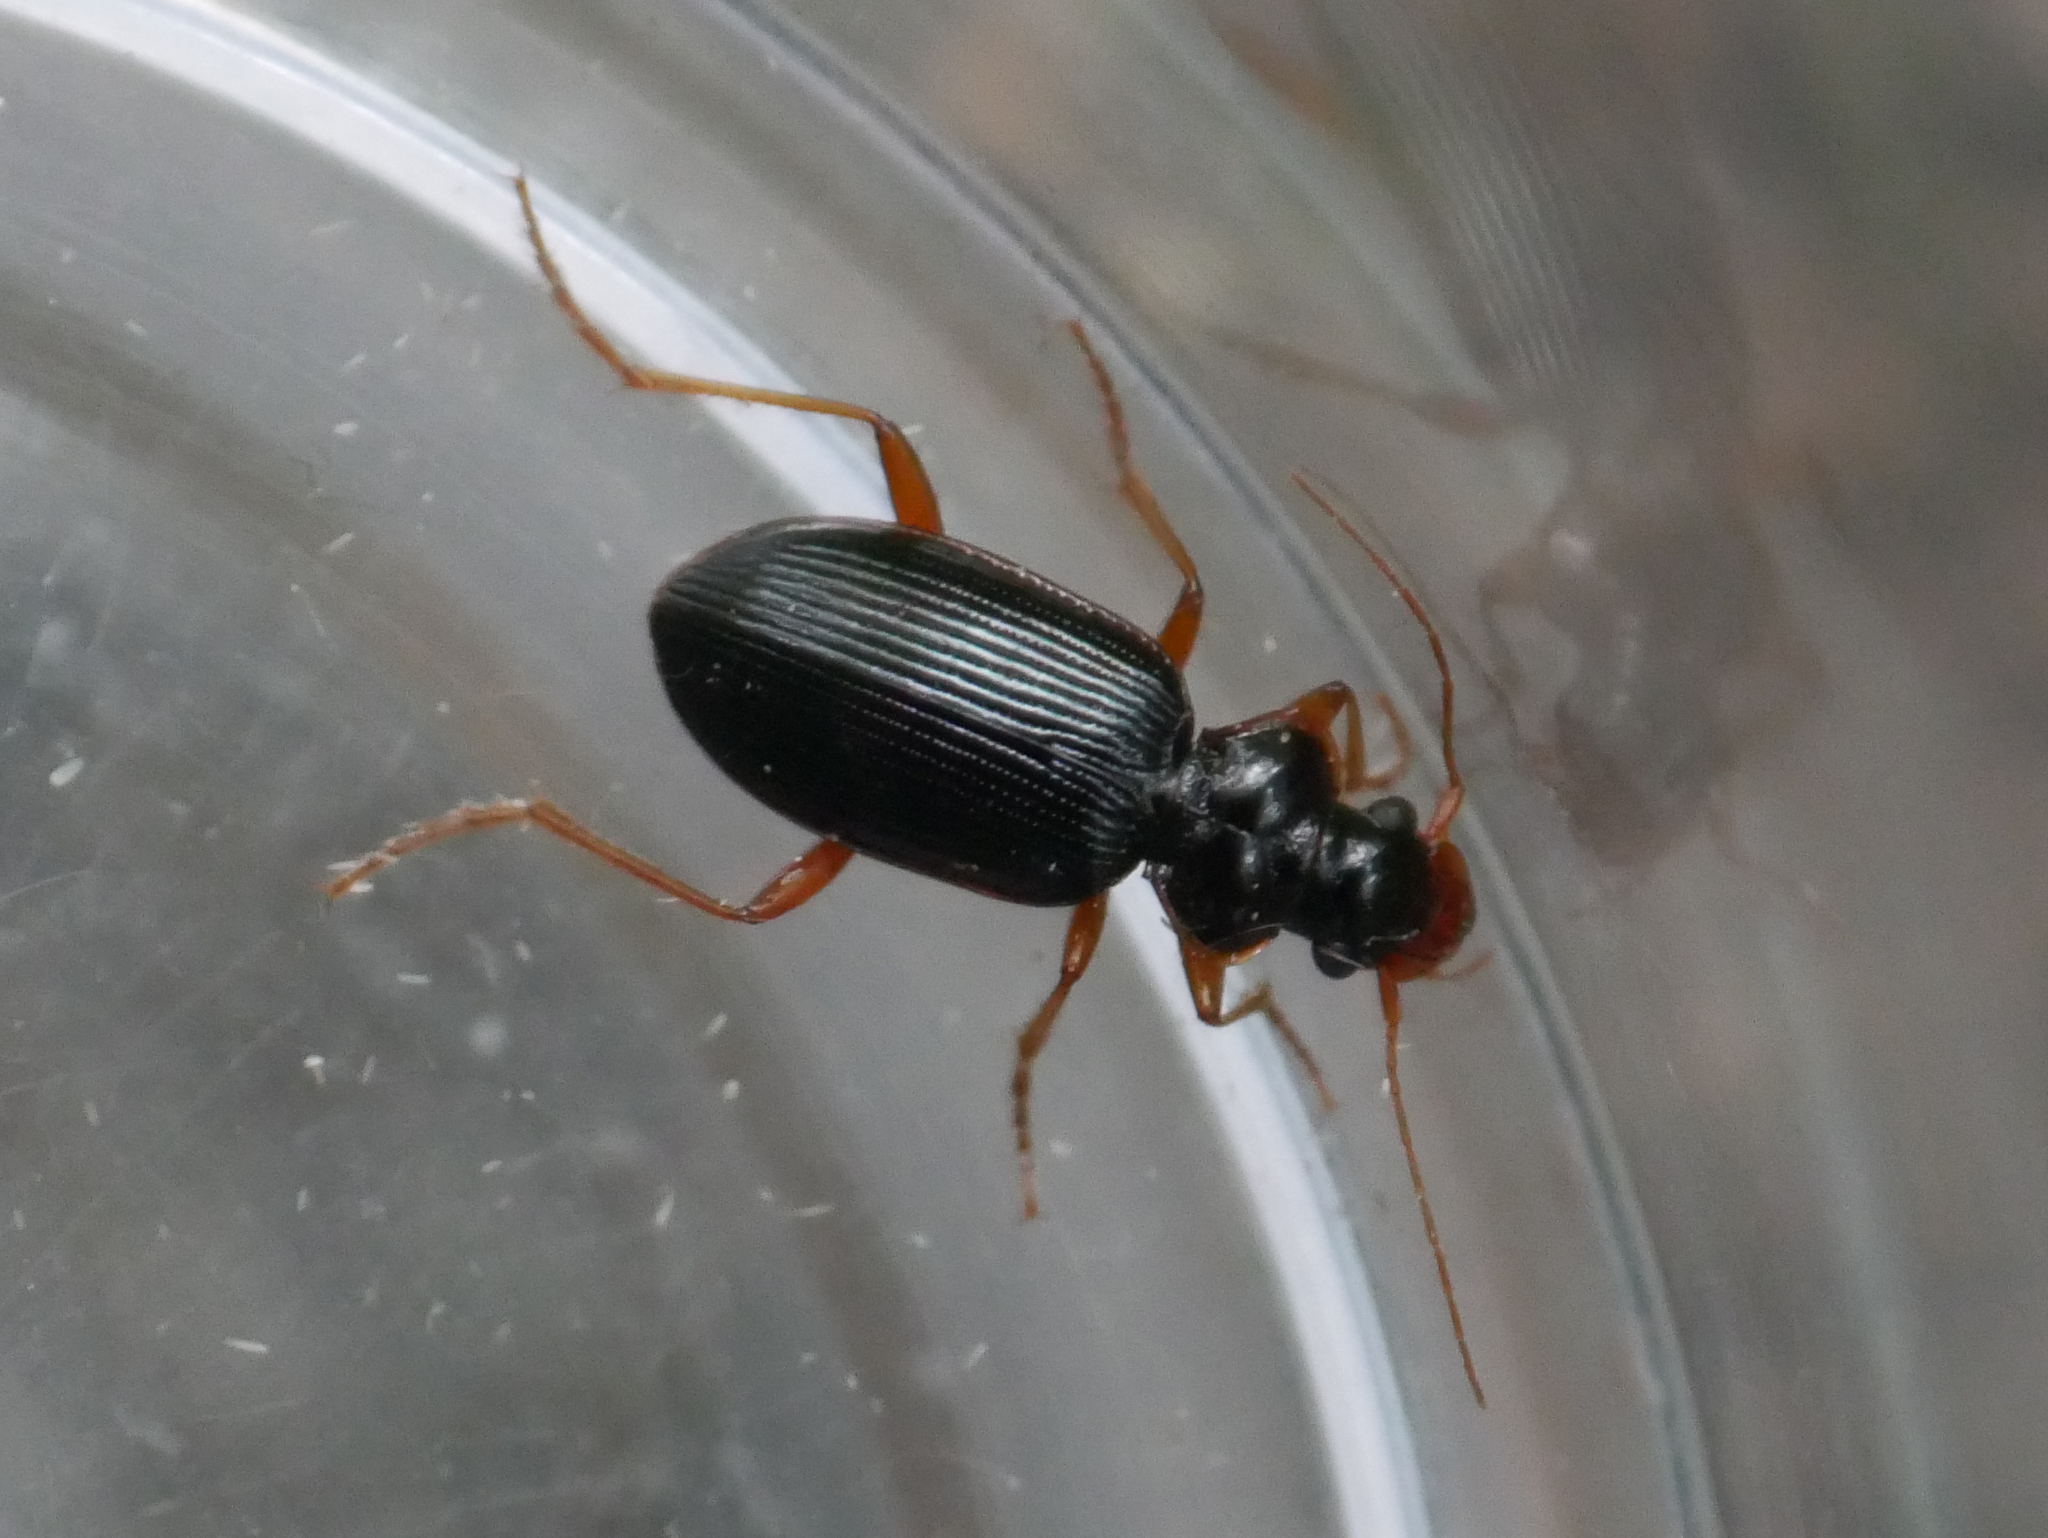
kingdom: Animalia
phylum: Arthropoda
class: Insecta
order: Coleoptera
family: Carabidae
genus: Leistus
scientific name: Leistus rufomarginatus
